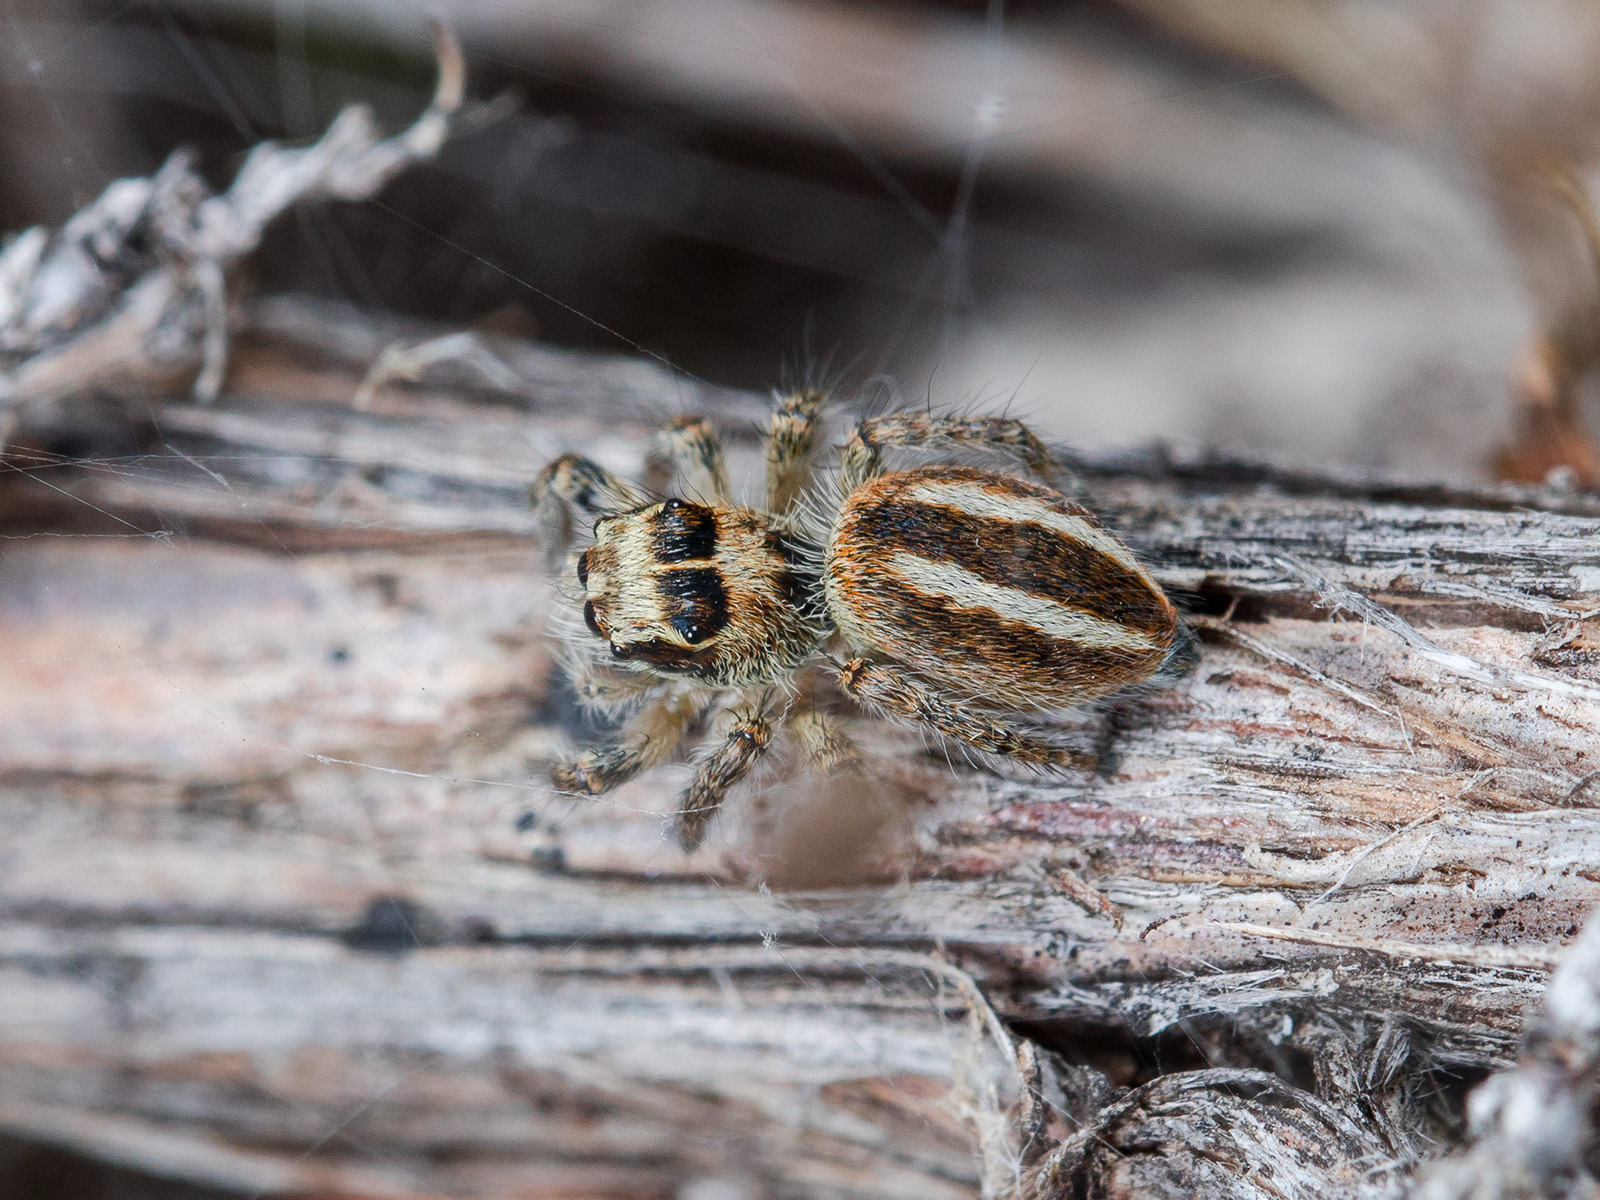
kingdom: Animalia
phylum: Arthropoda
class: Arachnida
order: Araneae
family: Salticidae
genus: Philaeus
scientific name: Philaeus chrysops
